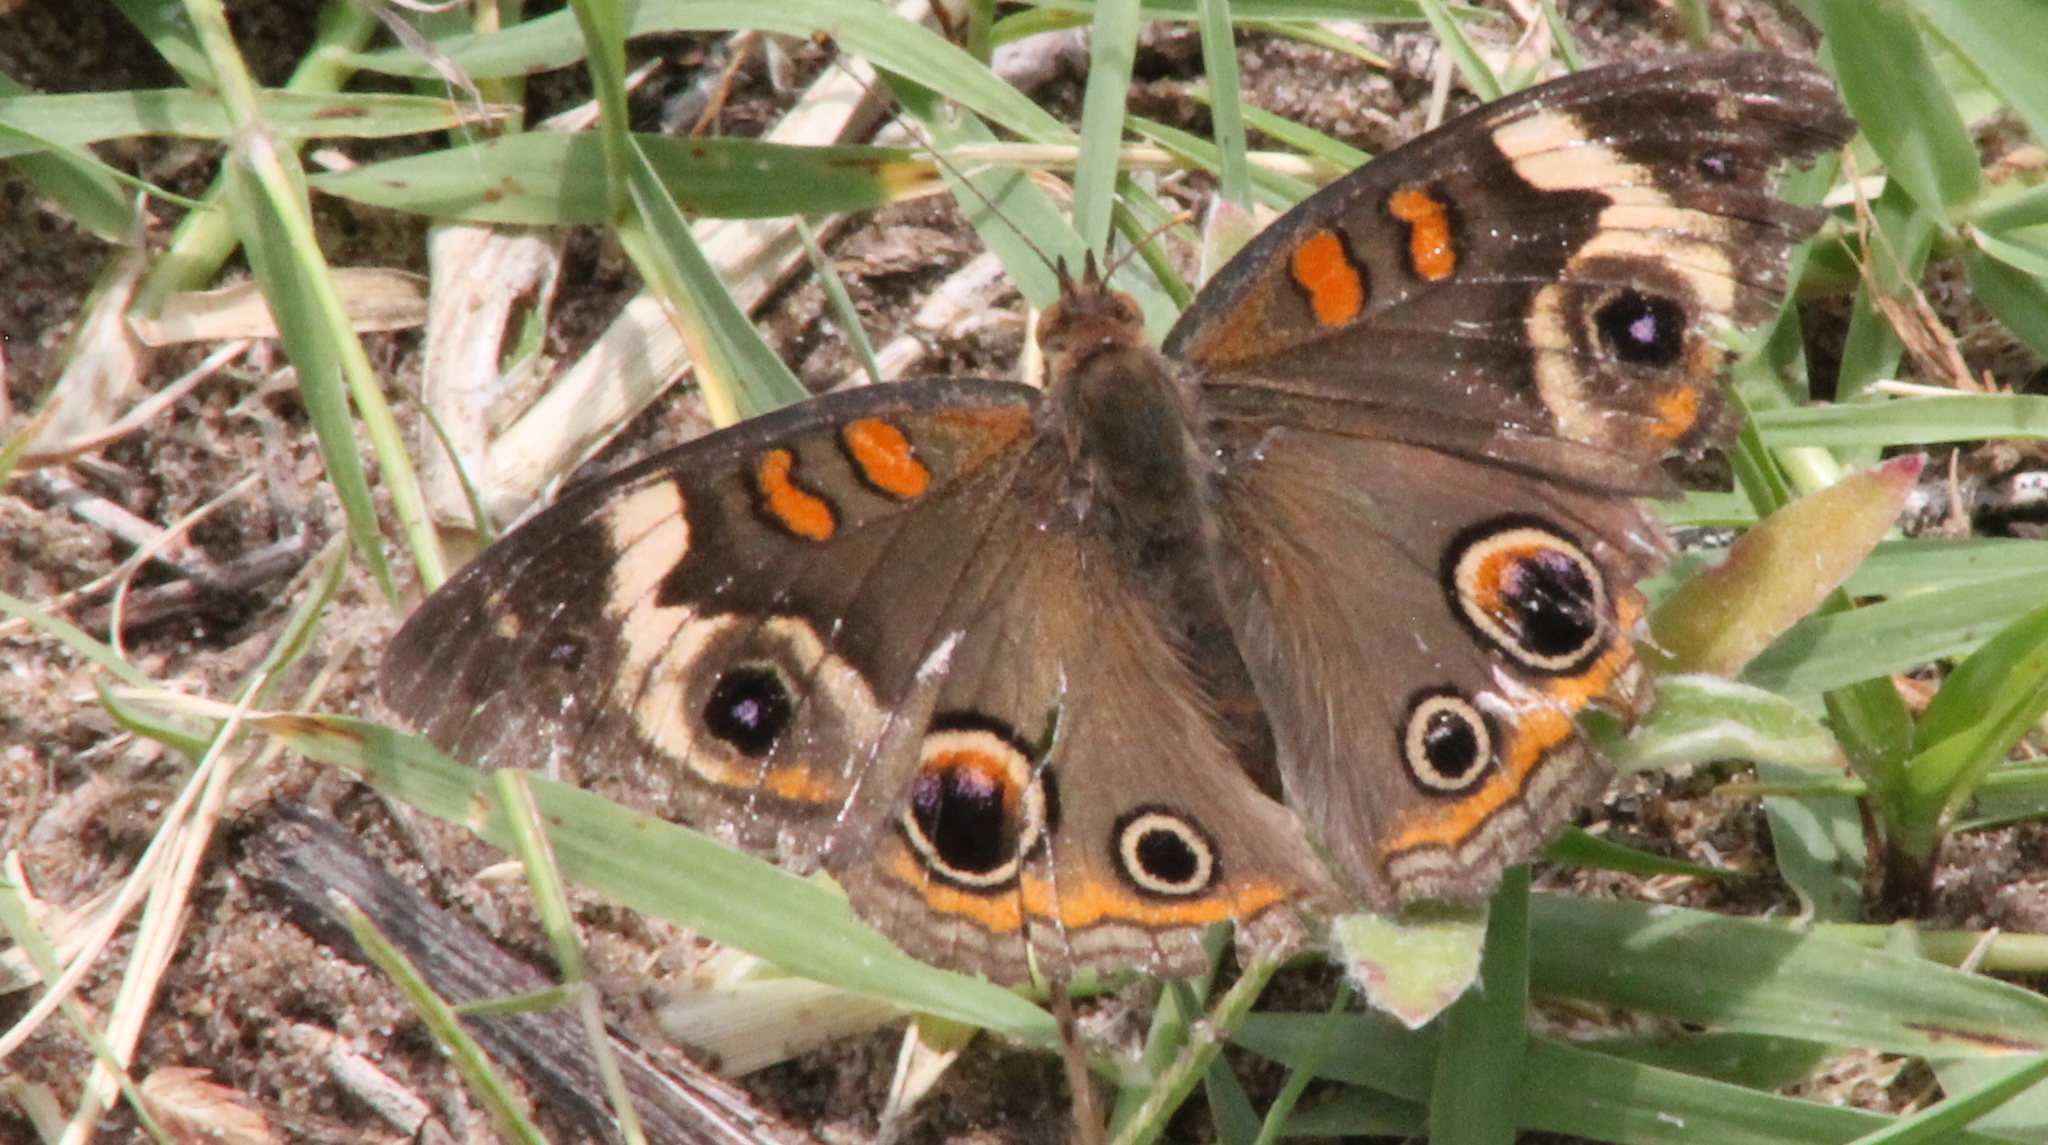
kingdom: Animalia
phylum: Arthropoda
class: Insecta
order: Lepidoptera
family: Nymphalidae
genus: Junonia
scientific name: Junonia coenia
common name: Common buckeye
